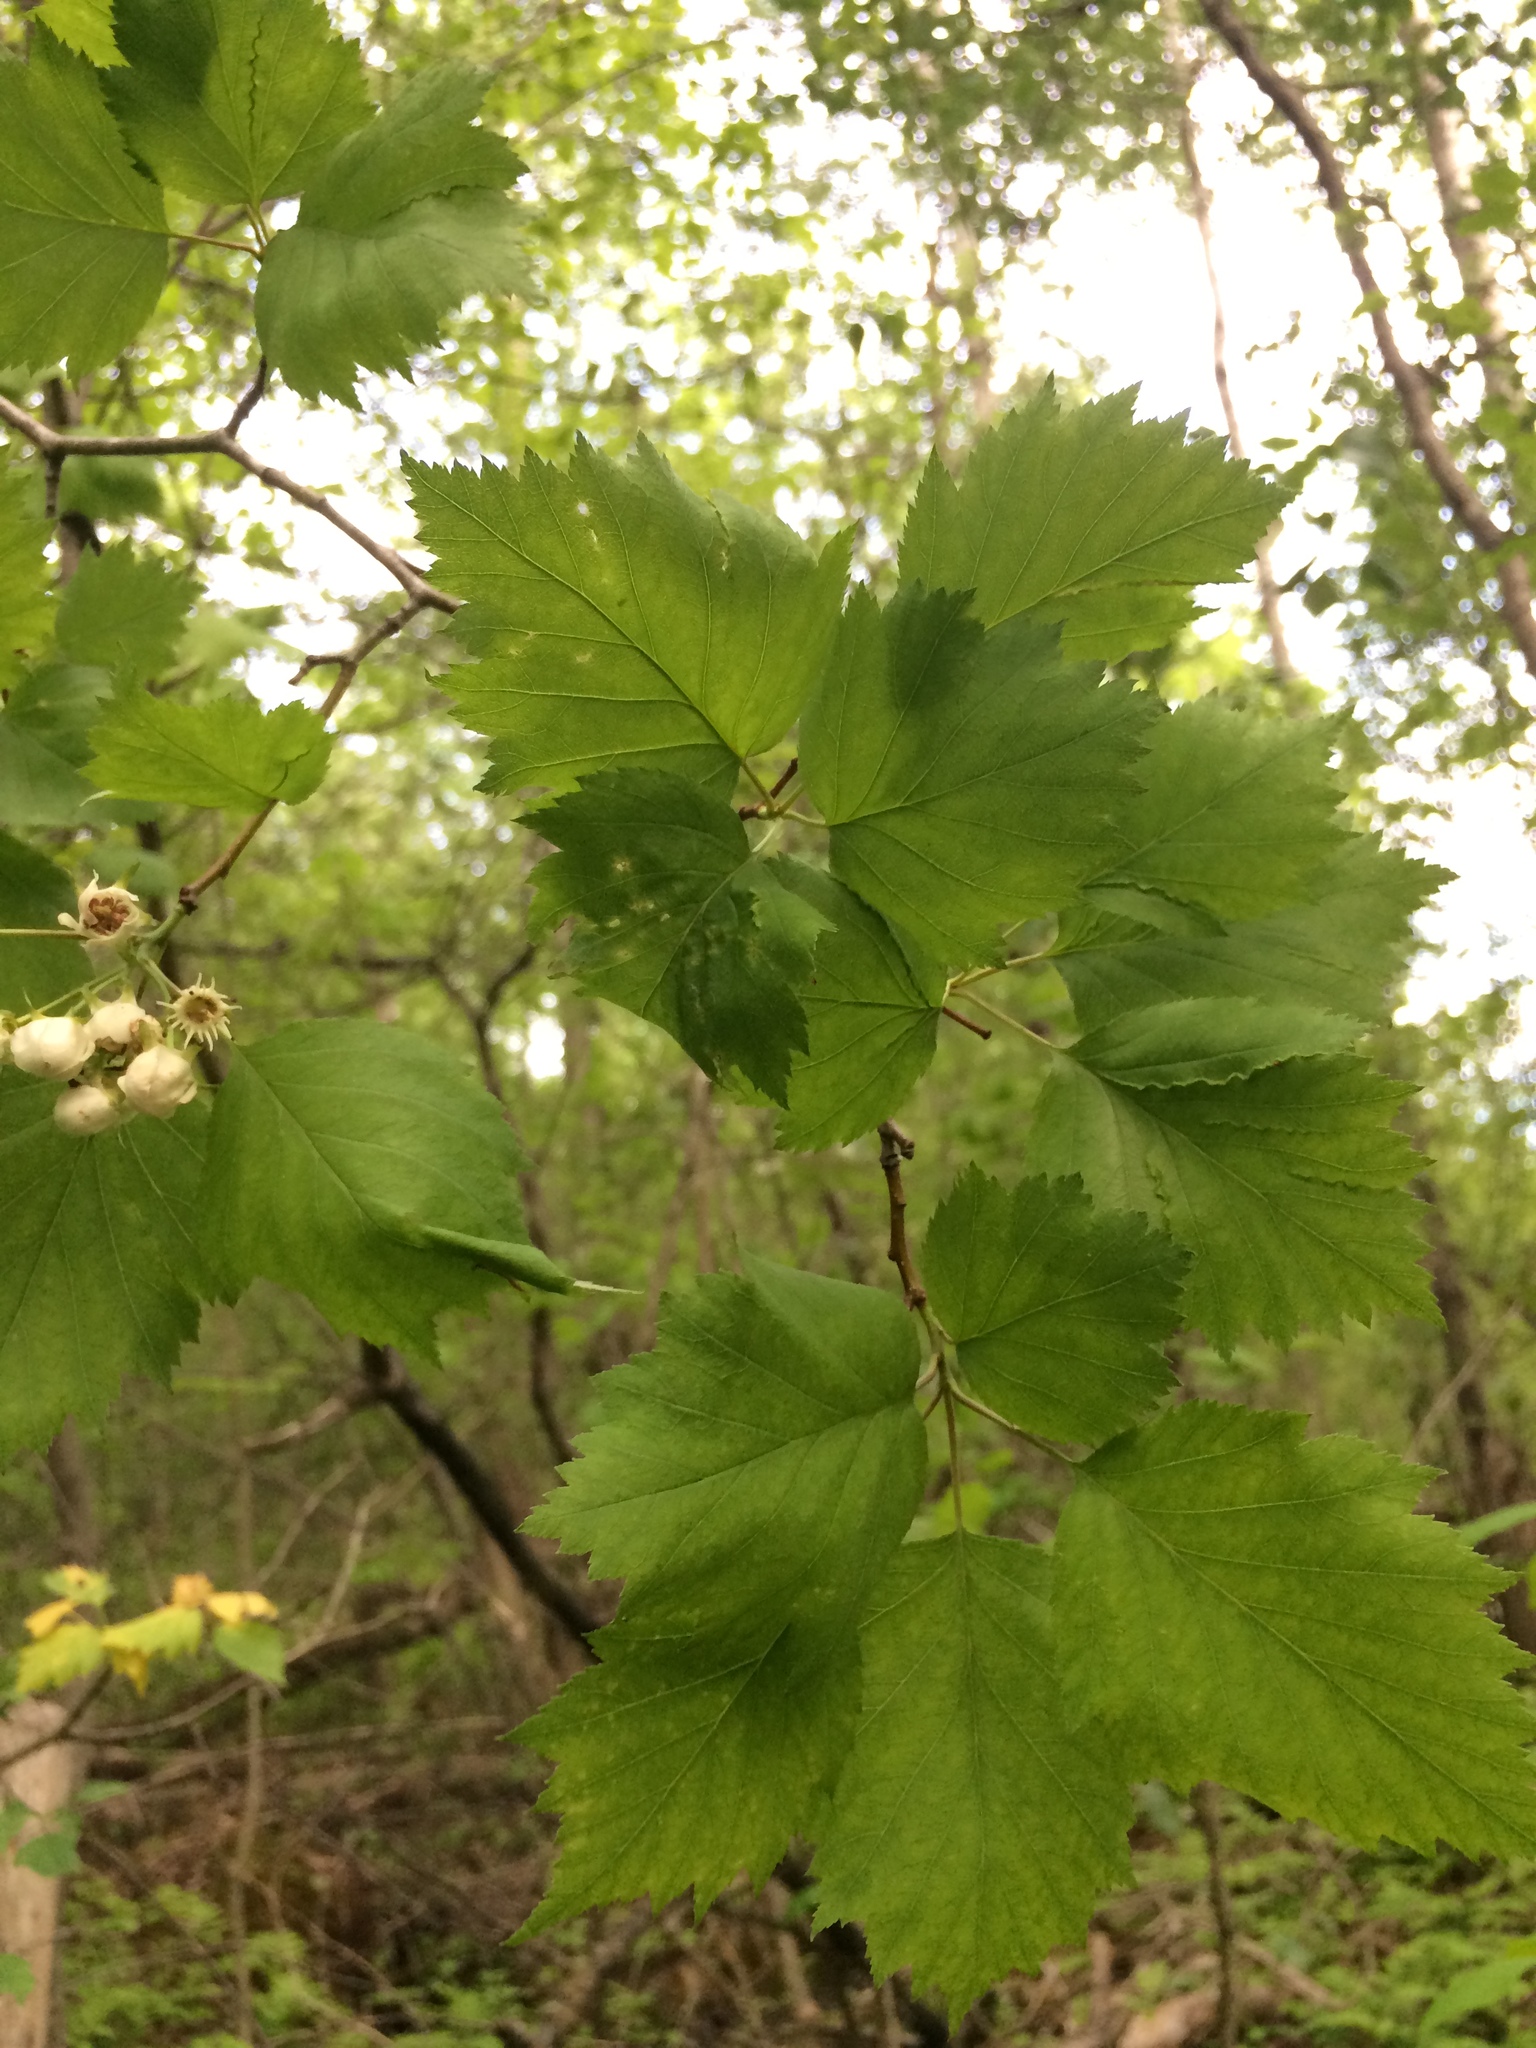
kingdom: Plantae
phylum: Tracheophyta
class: Magnoliopsida
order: Rosales
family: Rosaceae
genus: Crataegus
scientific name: Crataegus schuettei
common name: Schuette's hawthorn
